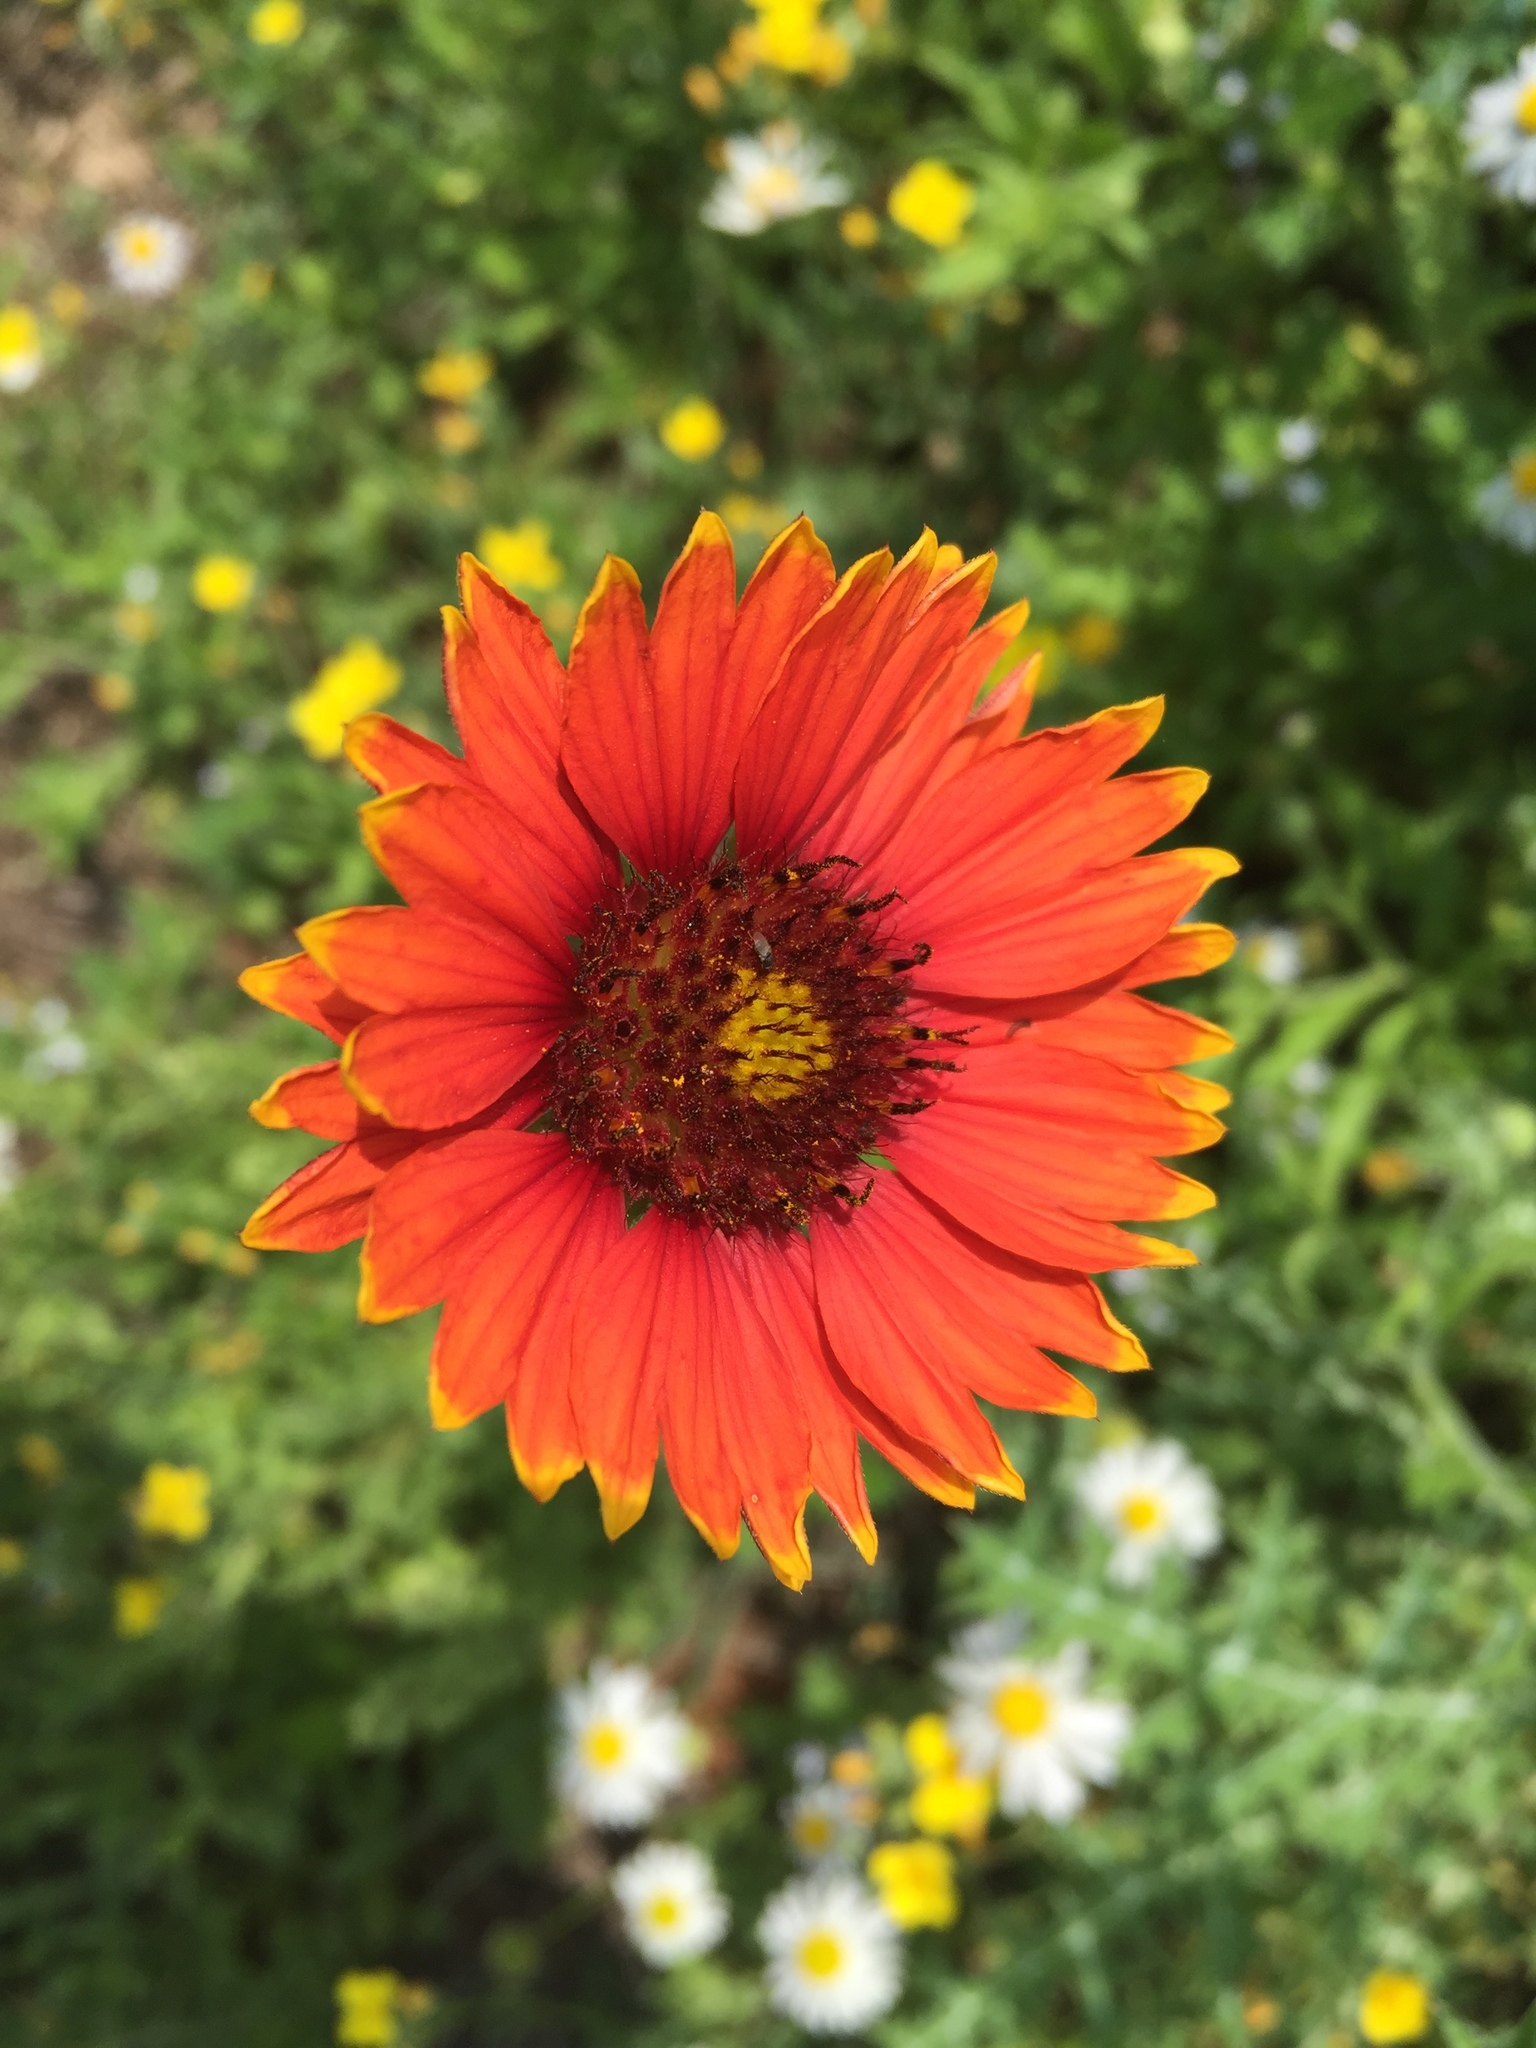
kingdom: Plantae
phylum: Tracheophyta
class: Magnoliopsida
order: Asterales
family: Asteraceae
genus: Gaillardia
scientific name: Gaillardia amblyodon
